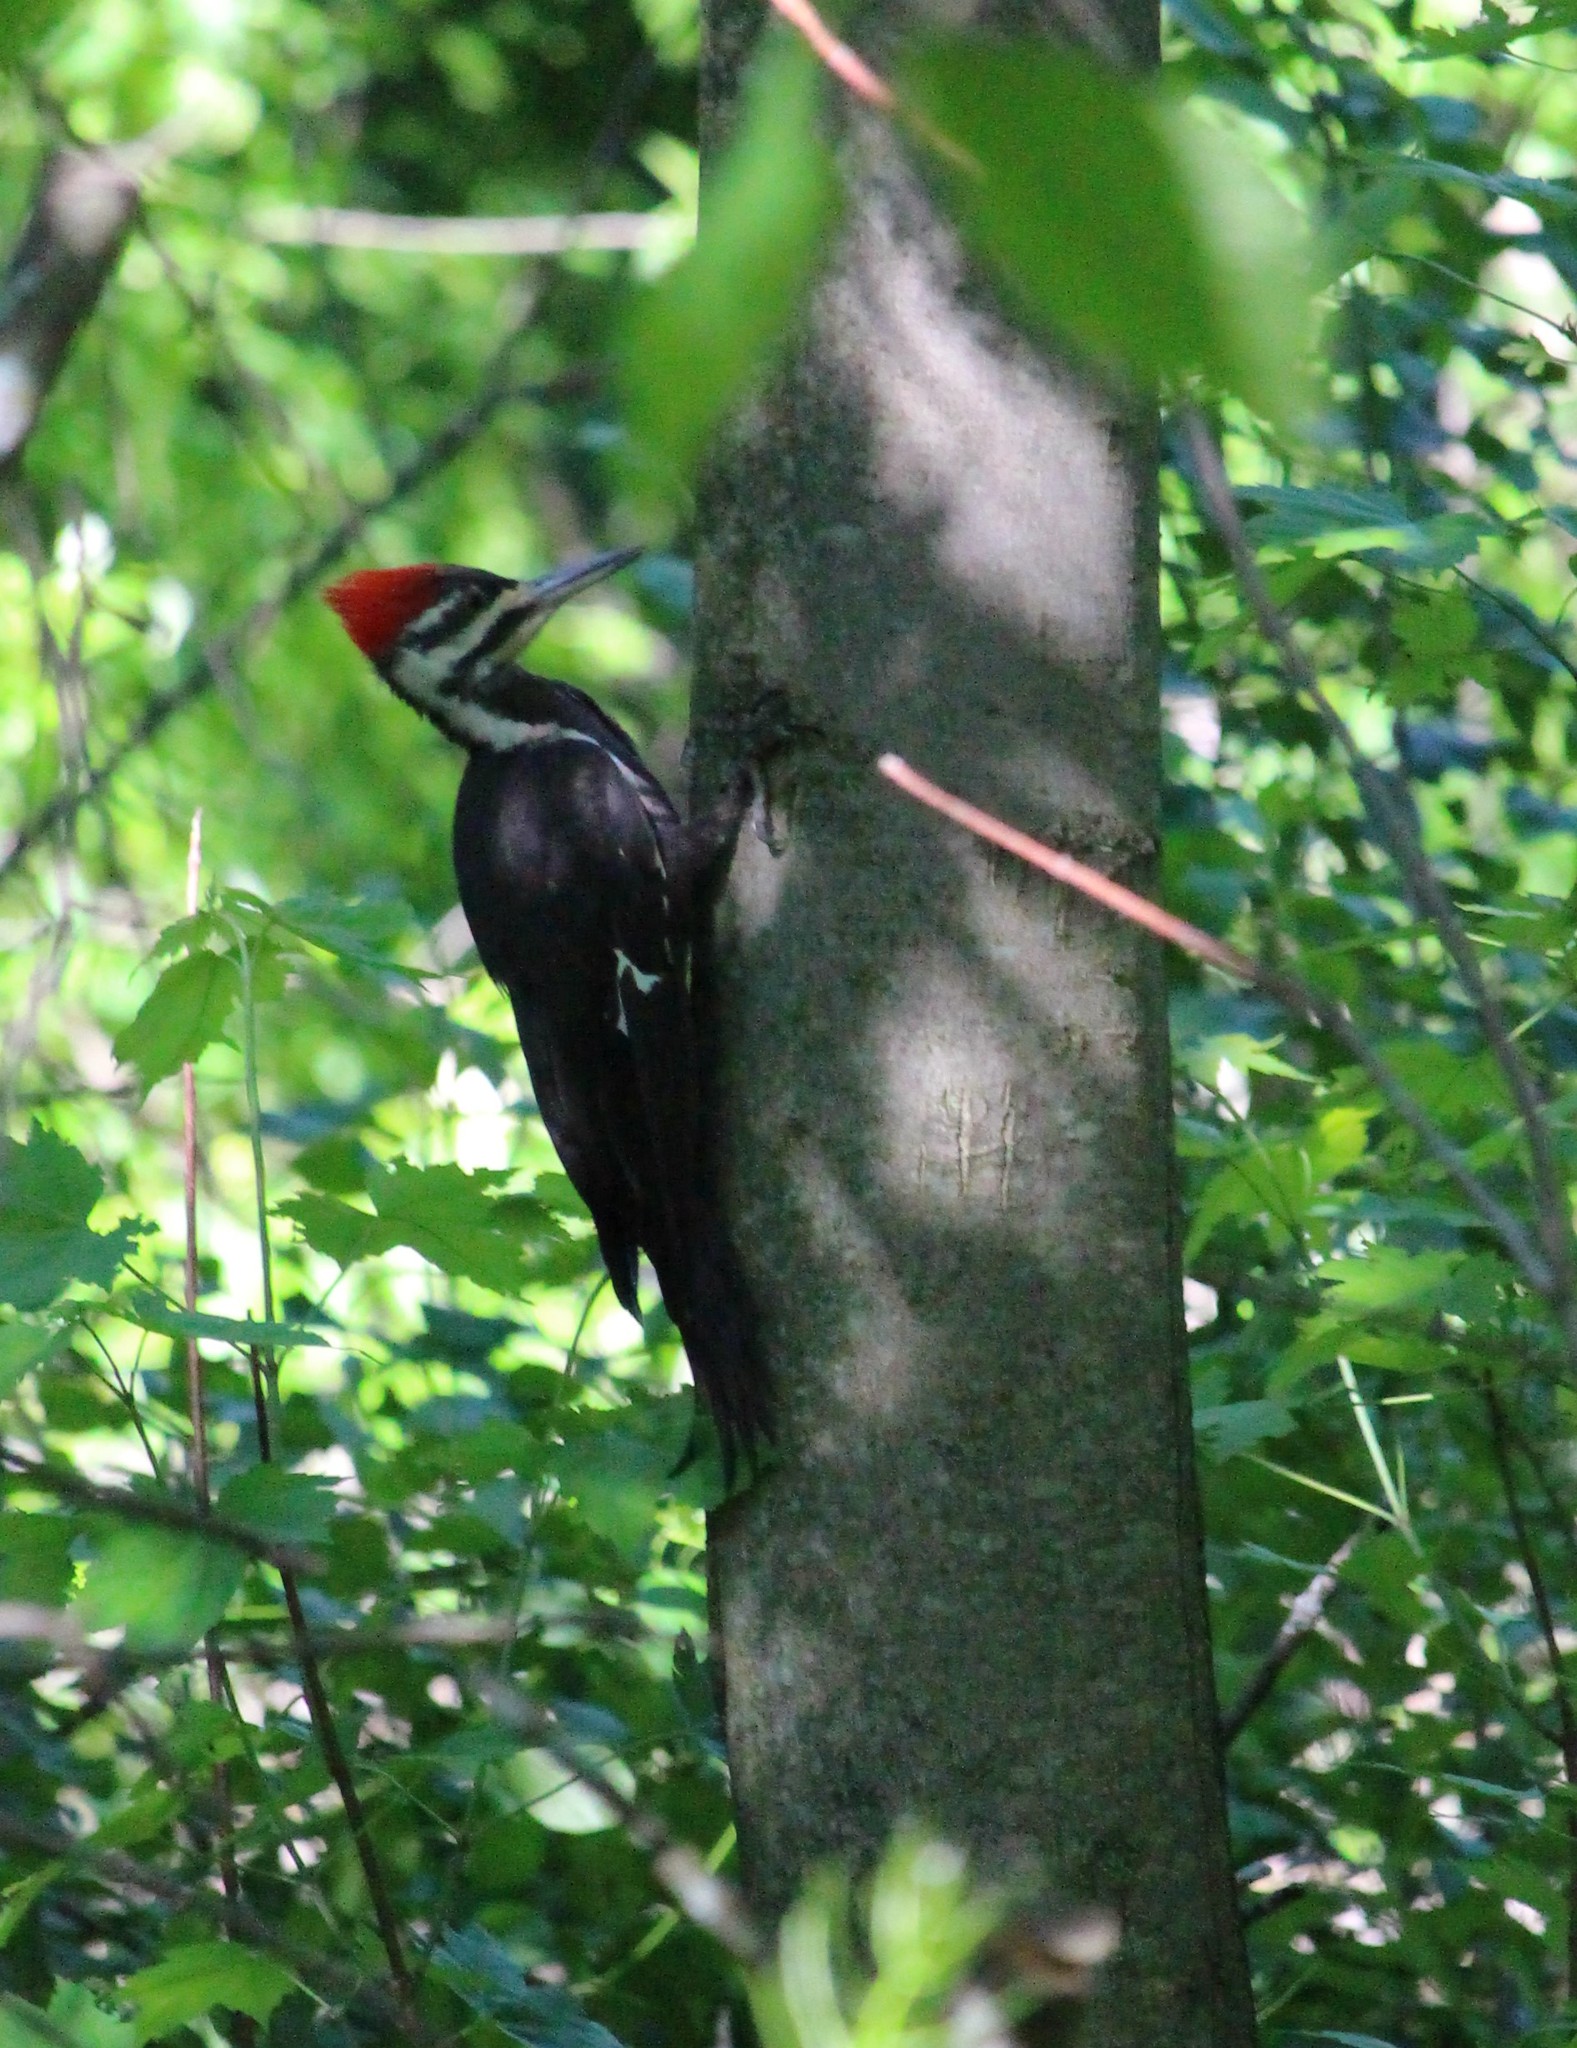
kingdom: Animalia
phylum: Chordata
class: Aves
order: Piciformes
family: Picidae
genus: Dryocopus
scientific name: Dryocopus pileatus
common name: Pileated woodpecker
